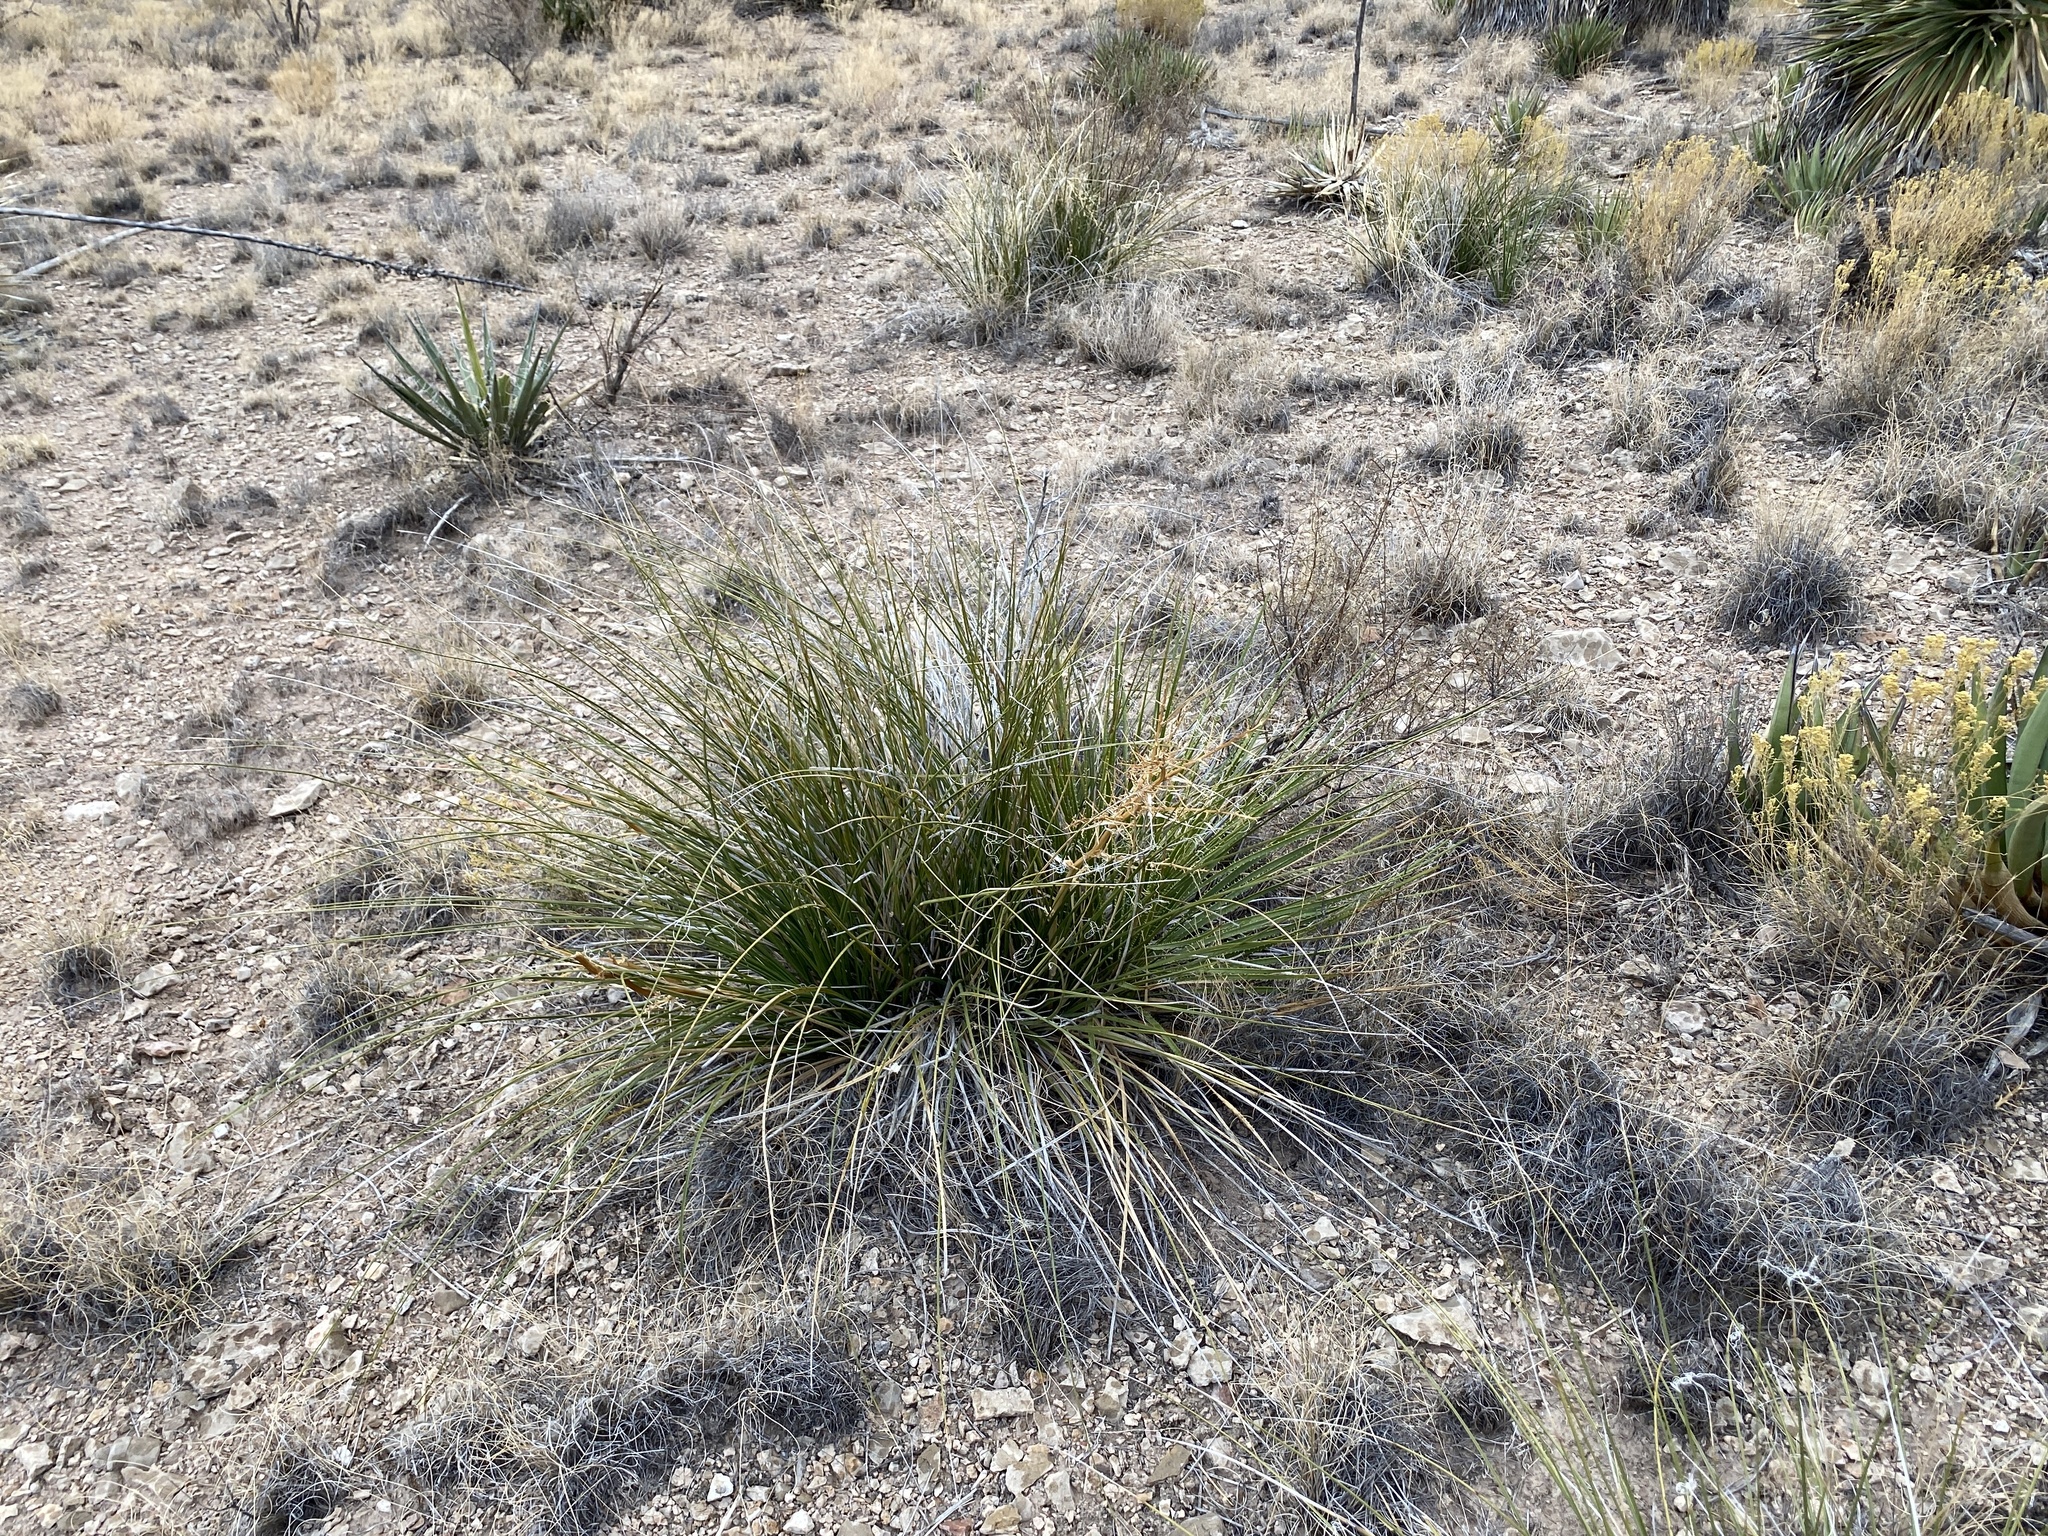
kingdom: Plantae
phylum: Tracheophyta
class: Liliopsida
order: Asparagales
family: Asparagaceae
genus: Nolina
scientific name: Nolina microcarpa
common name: Bear-grass
